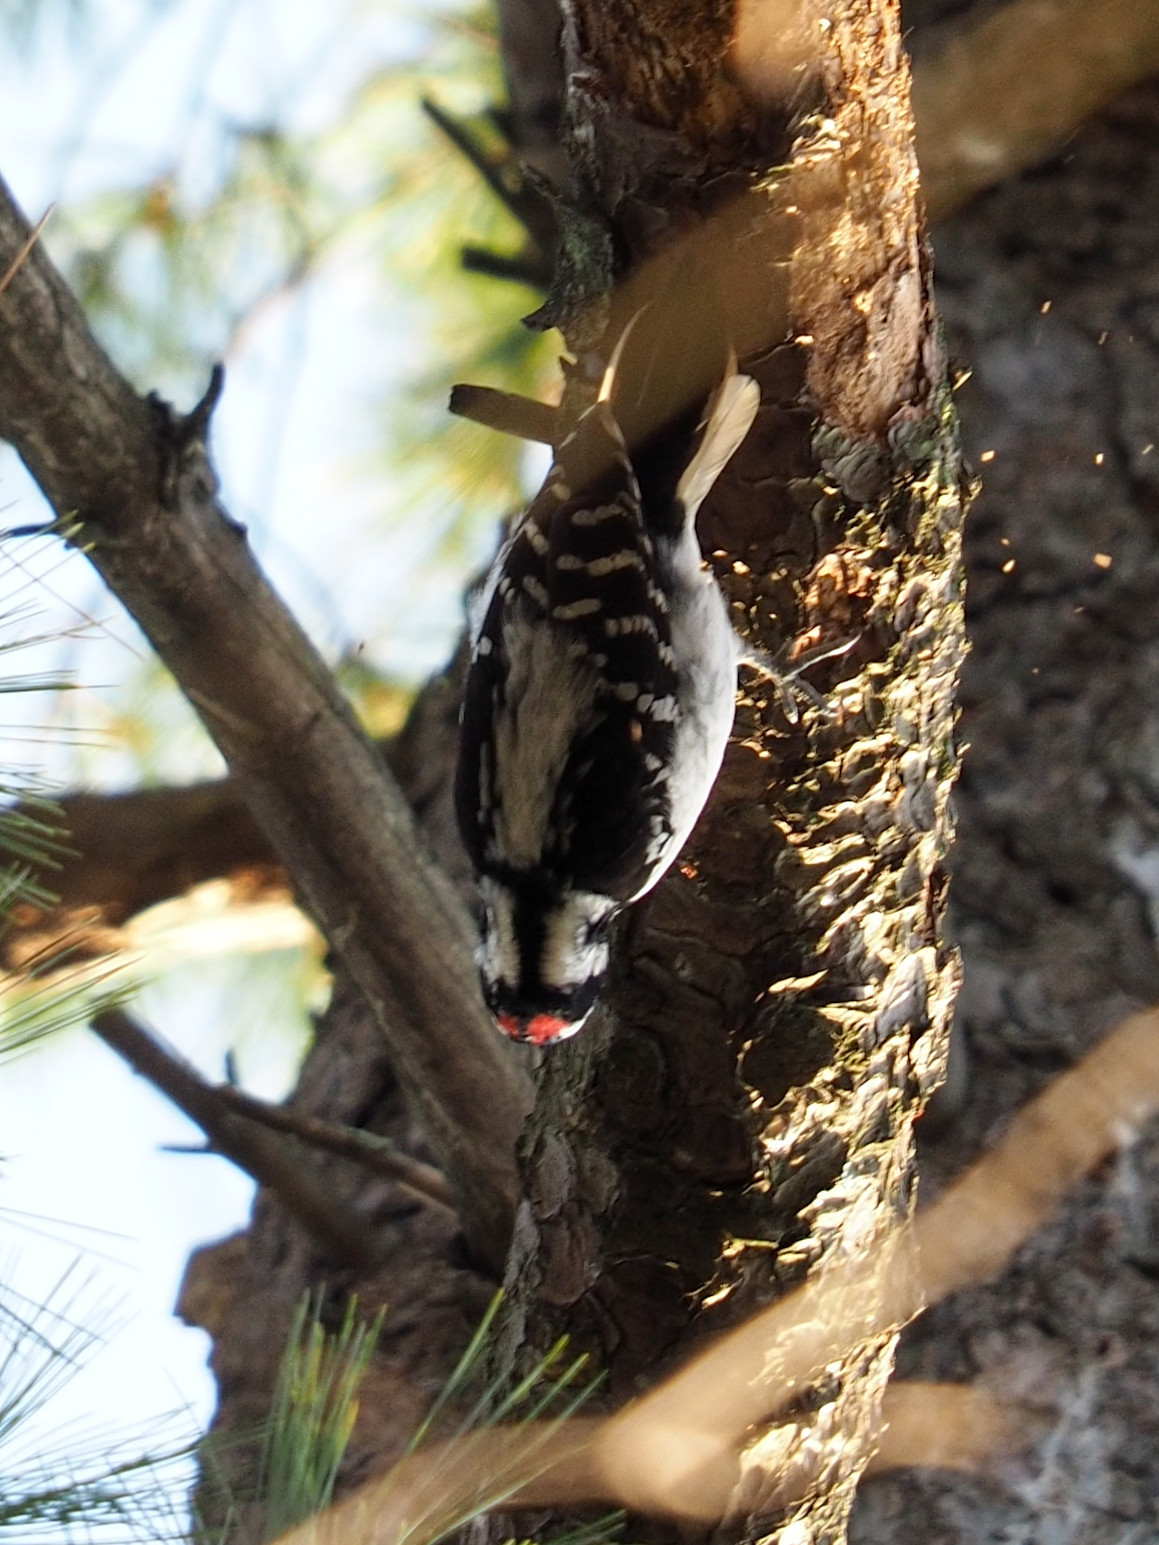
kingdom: Animalia
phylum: Chordata
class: Aves
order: Piciformes
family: Picidae
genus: Dryobates
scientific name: Dryobates pubescens
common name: Downy woodpecker
